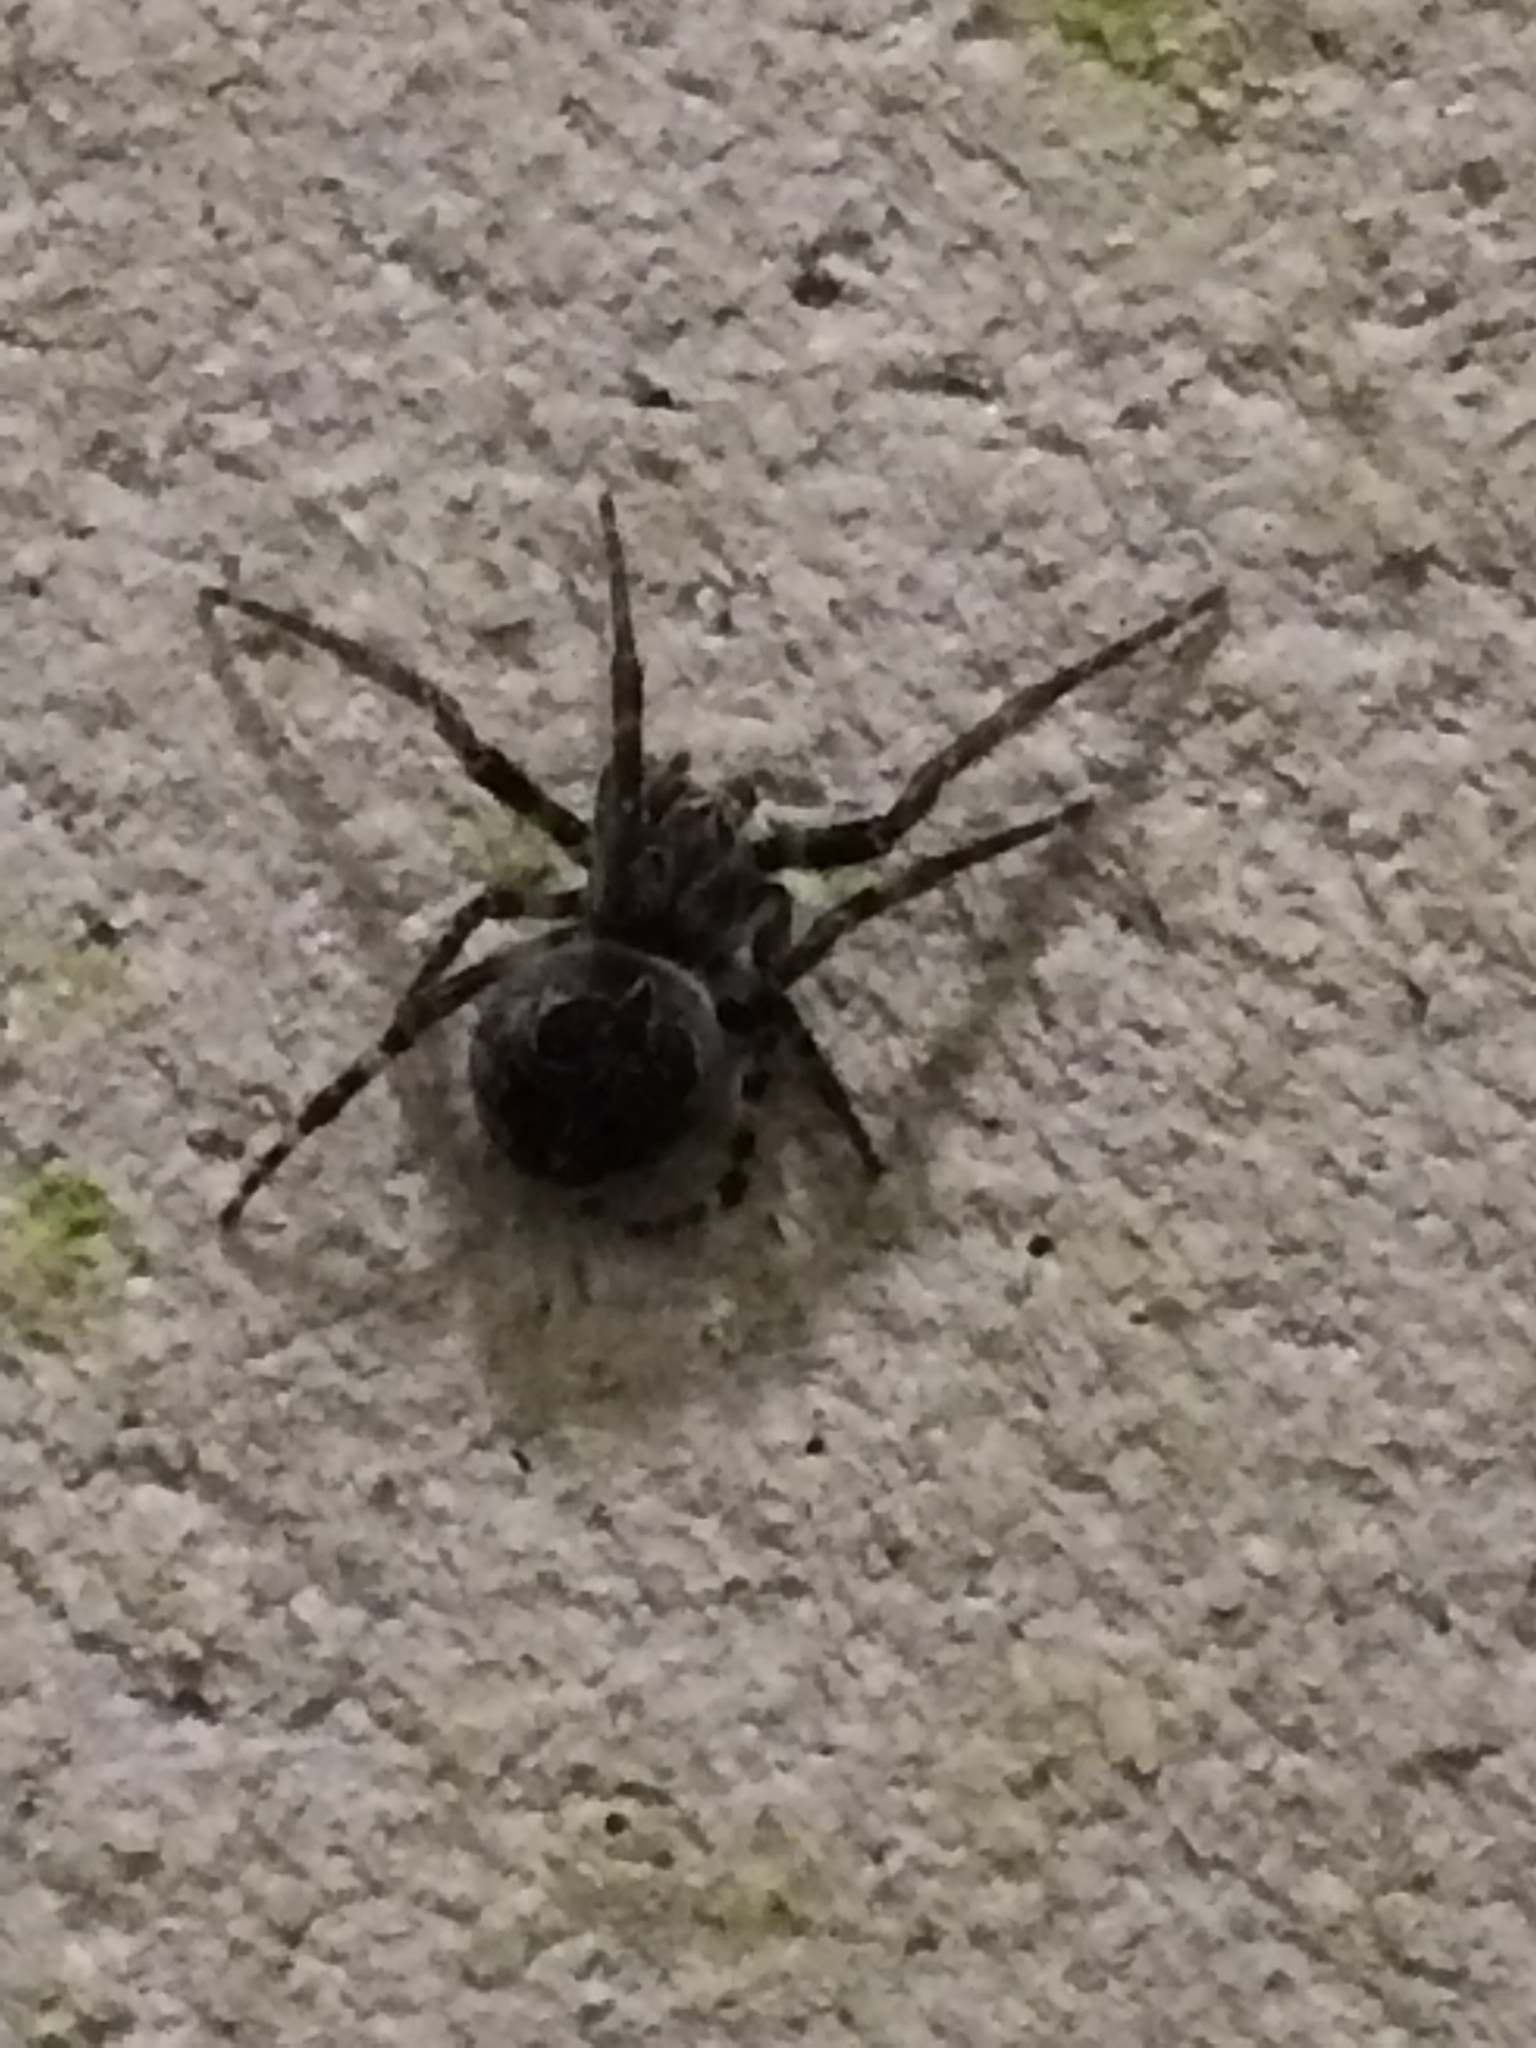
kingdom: Animalia
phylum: Arthropoda
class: Arachnida
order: Araneae
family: Araneidae
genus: Larinioides
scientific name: Larinioides
